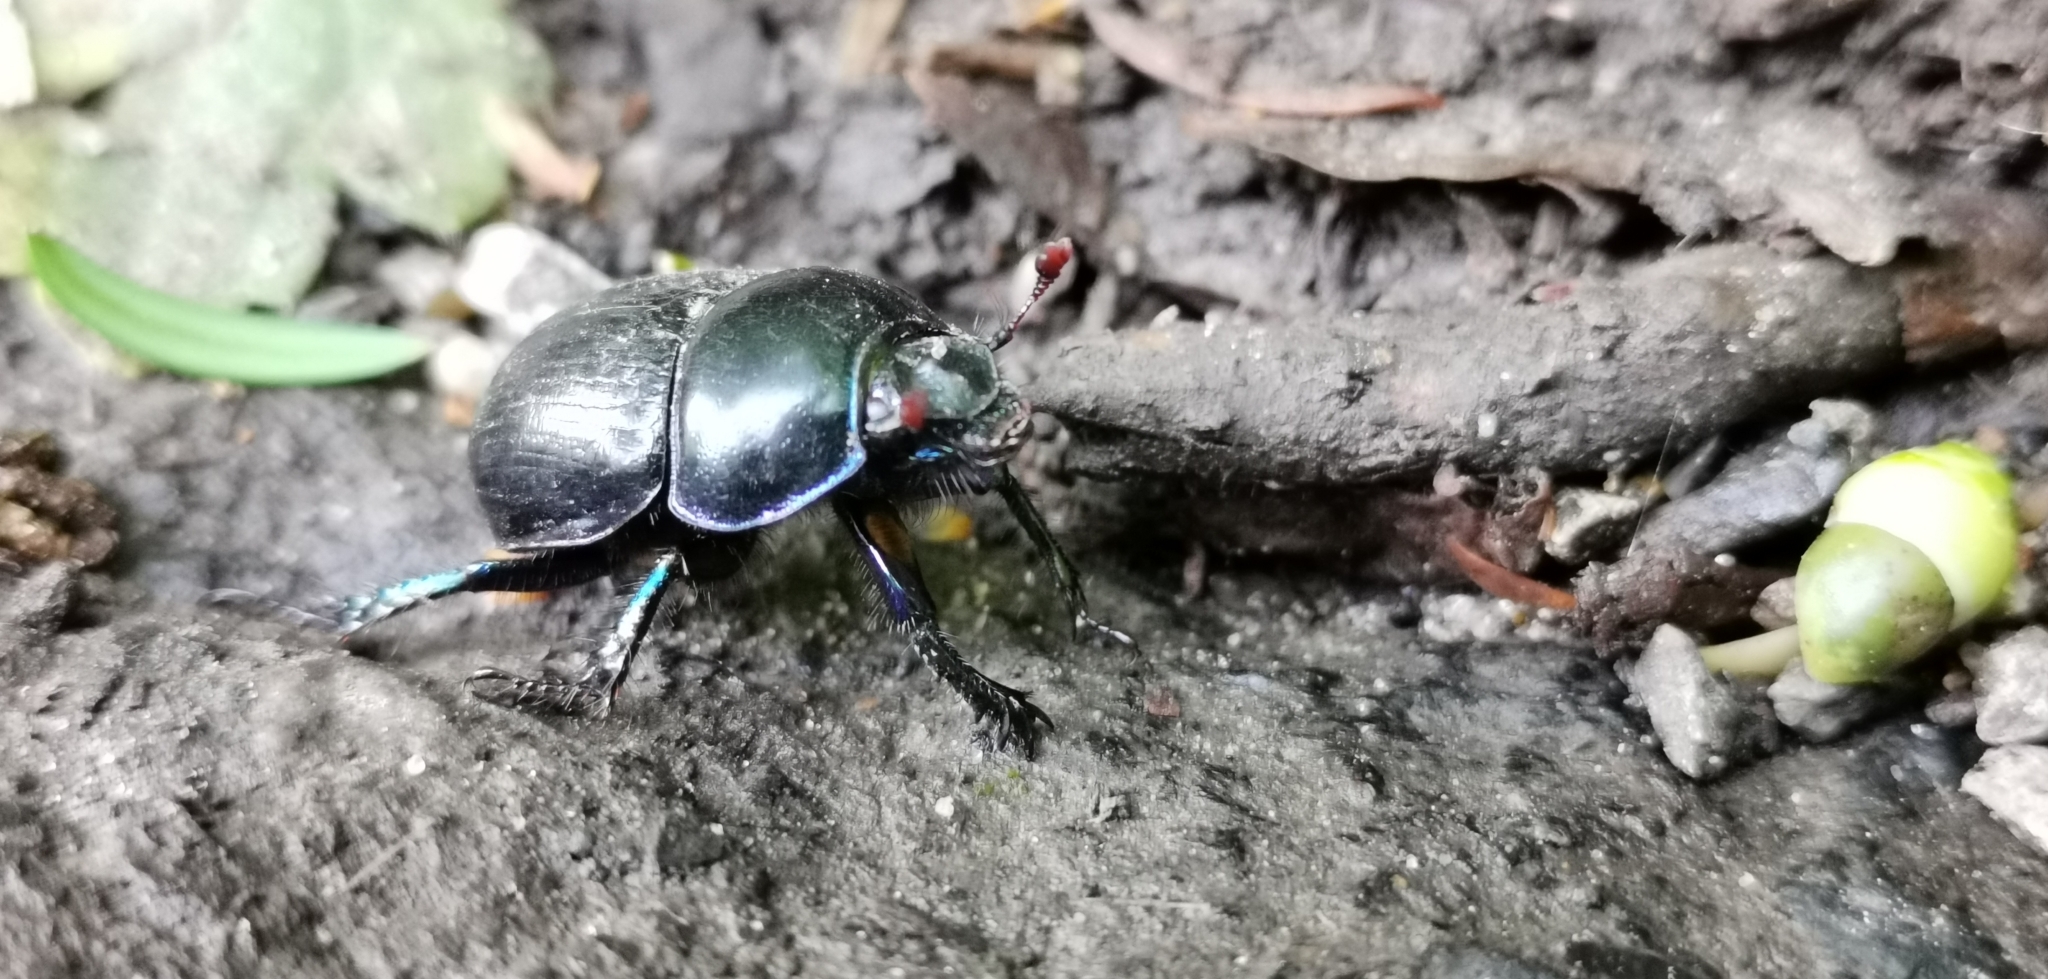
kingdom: Animalia
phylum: Arthropoda
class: Insecta
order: Coleoptera
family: Geotrupidae
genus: Anoplotrupes
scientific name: Anoplotrupes stercorosus
